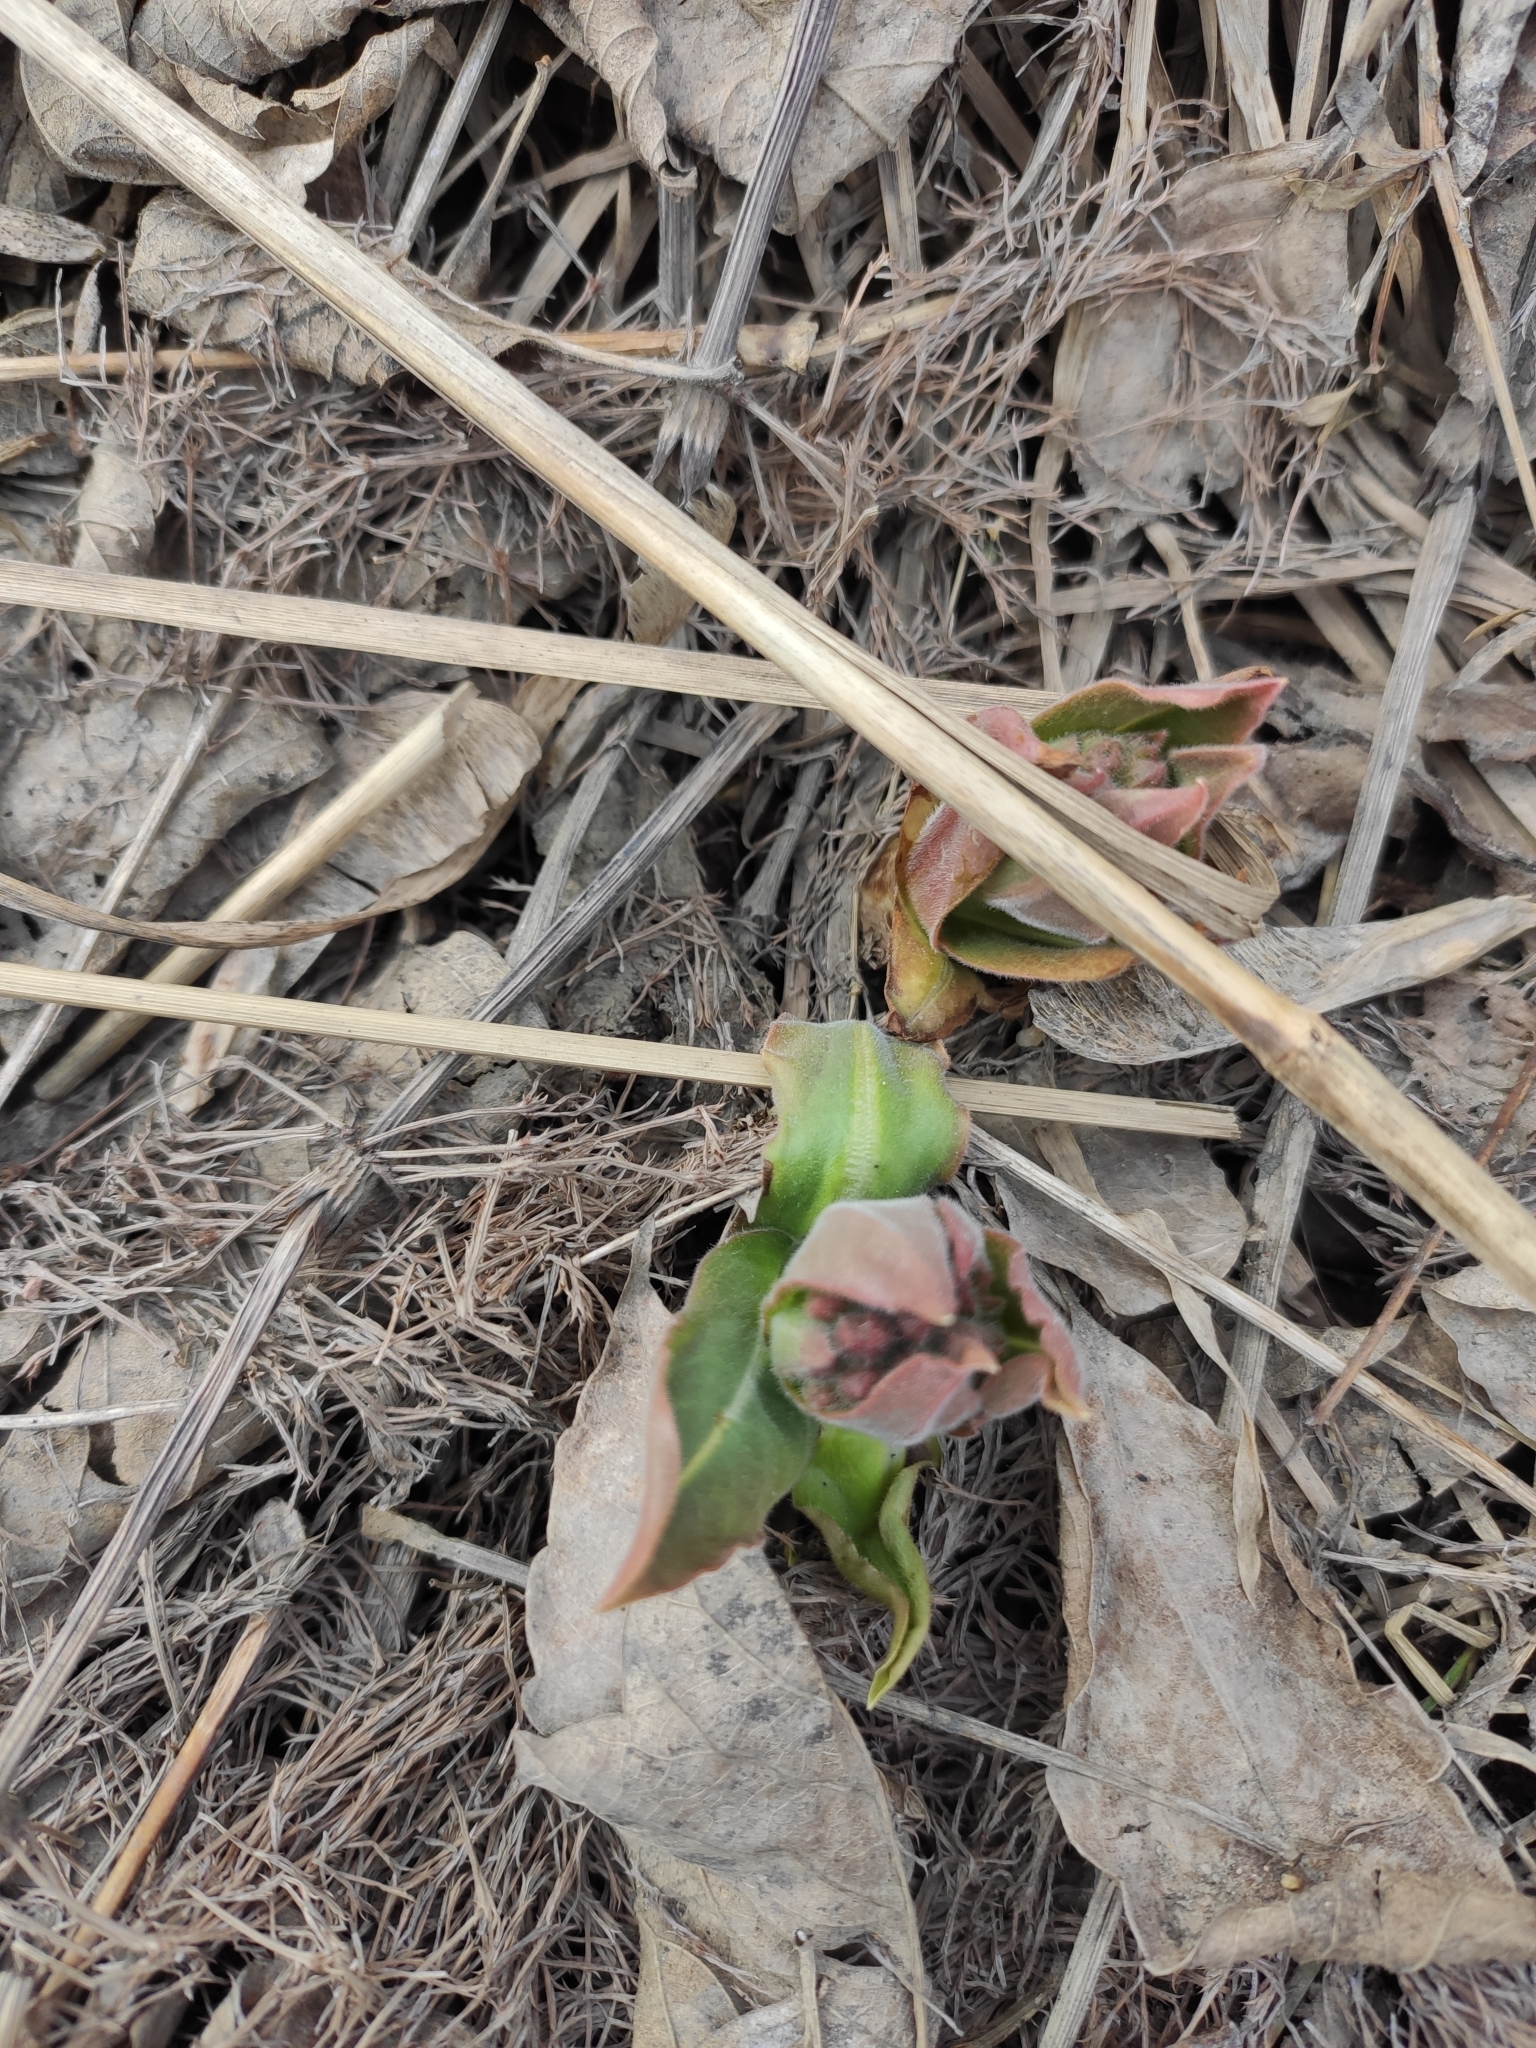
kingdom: Plantae
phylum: Tracheophyta
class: Magnoliopsida
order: Boraginales
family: Boraginaceae
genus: Pulmonaria
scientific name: Pulmonaria mollis
